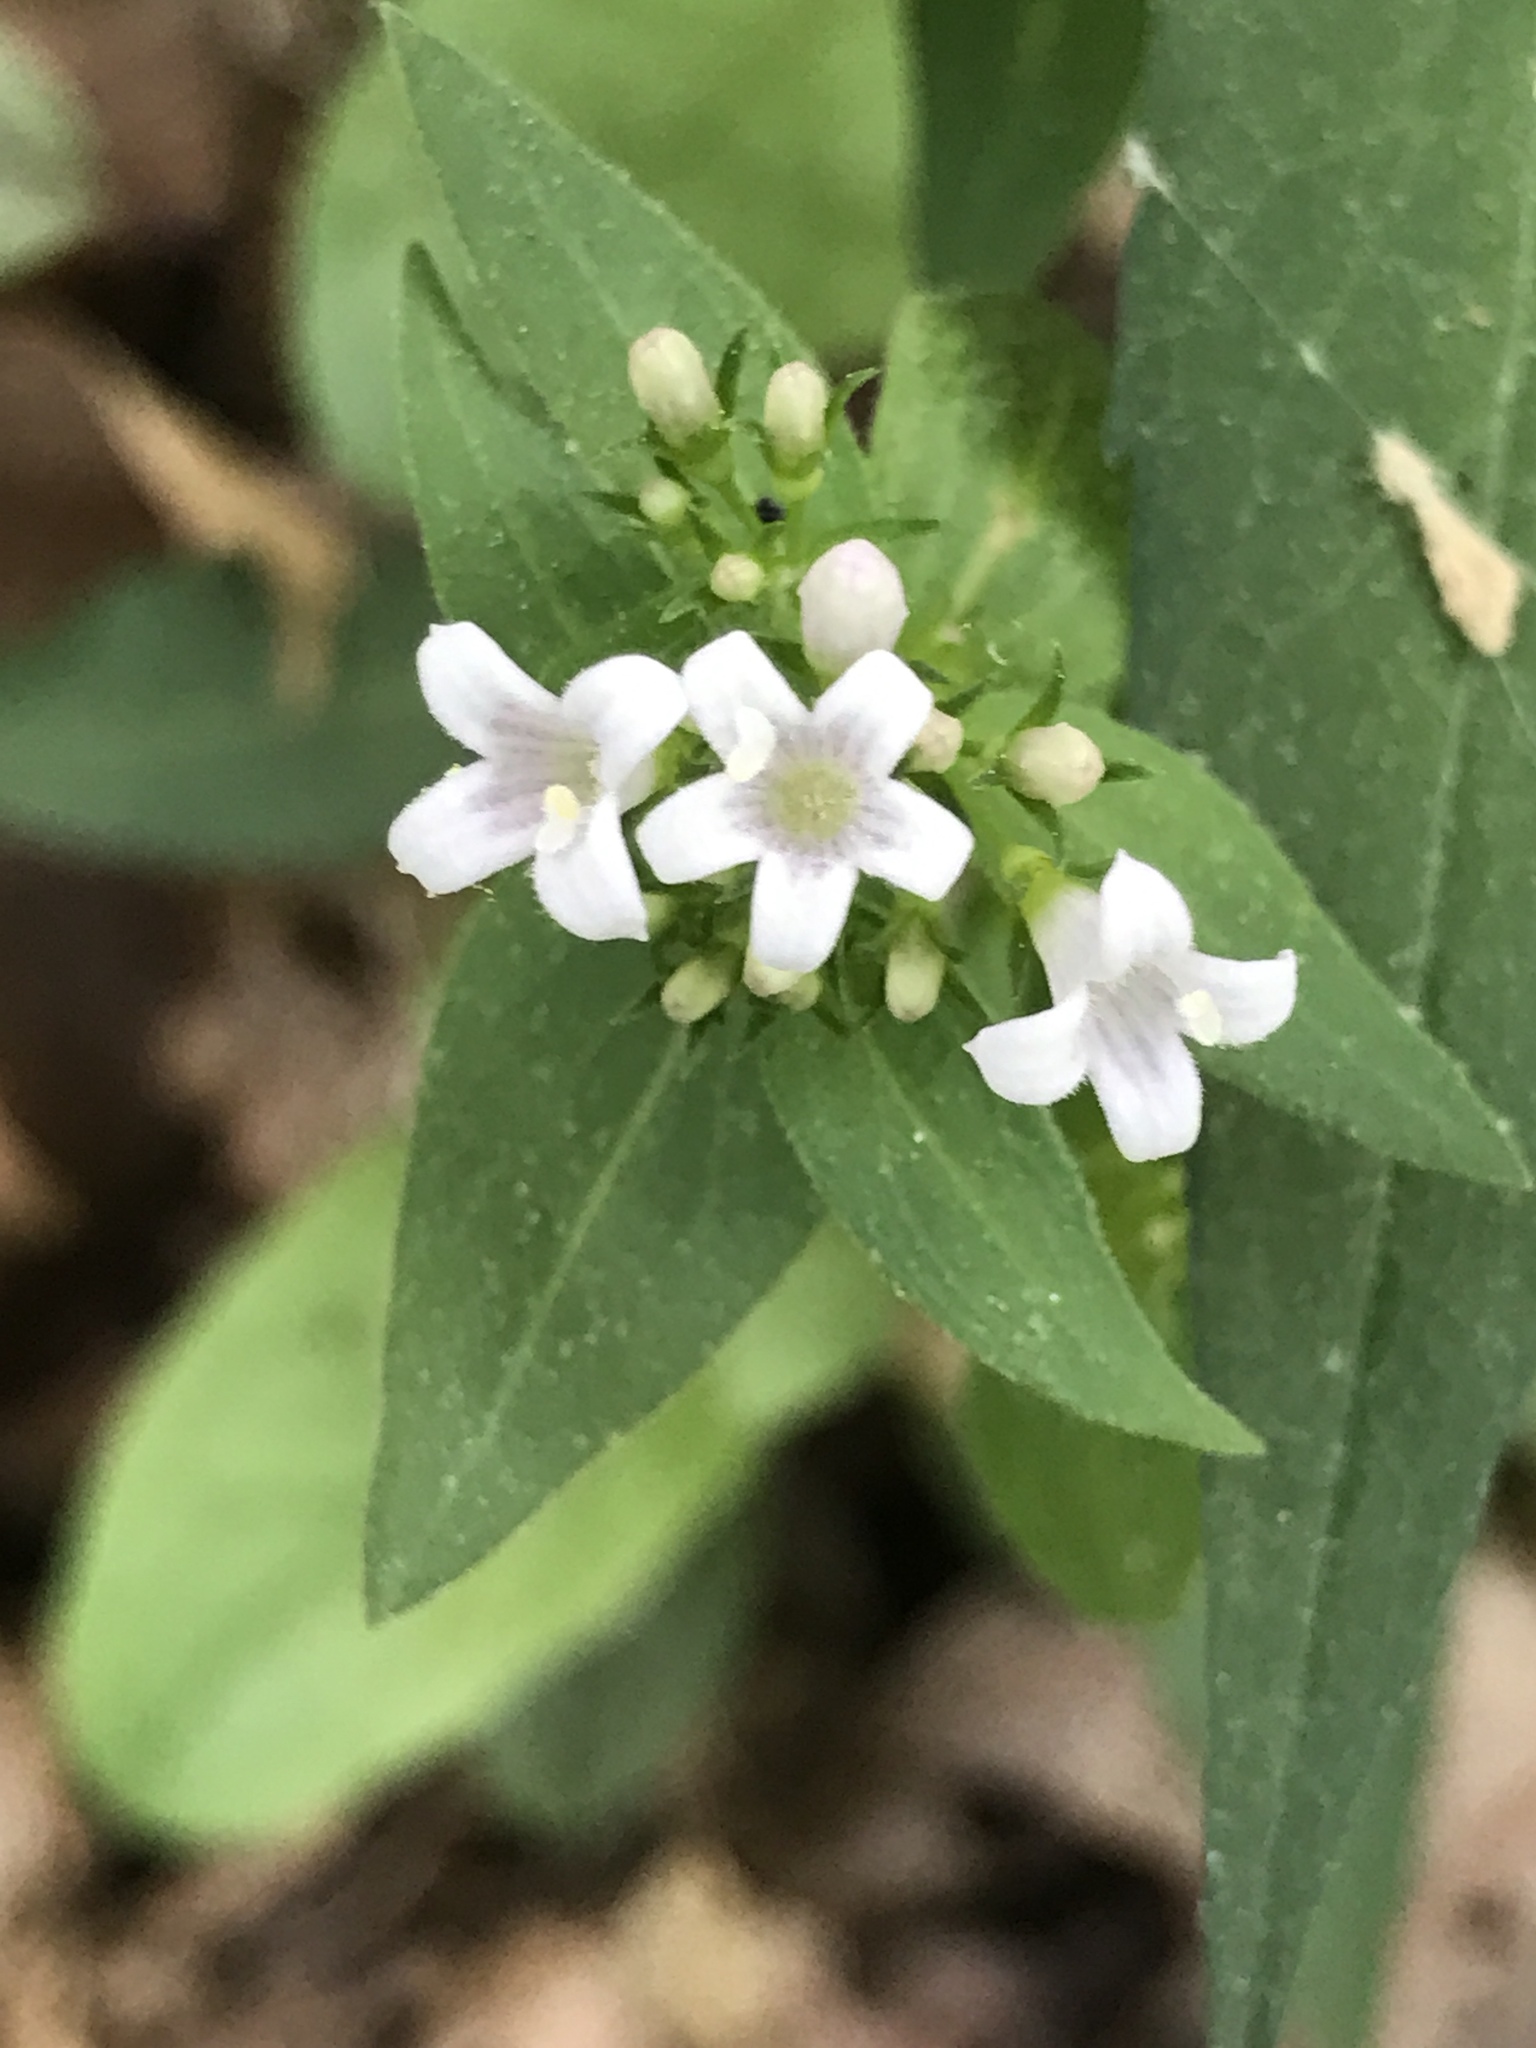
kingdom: Plantae
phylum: Tracheophyta
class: Magnoliopsida
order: Gentianales
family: Rubiaceae
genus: Houstonia
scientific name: Houstonia purpurea
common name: Summer bluet
